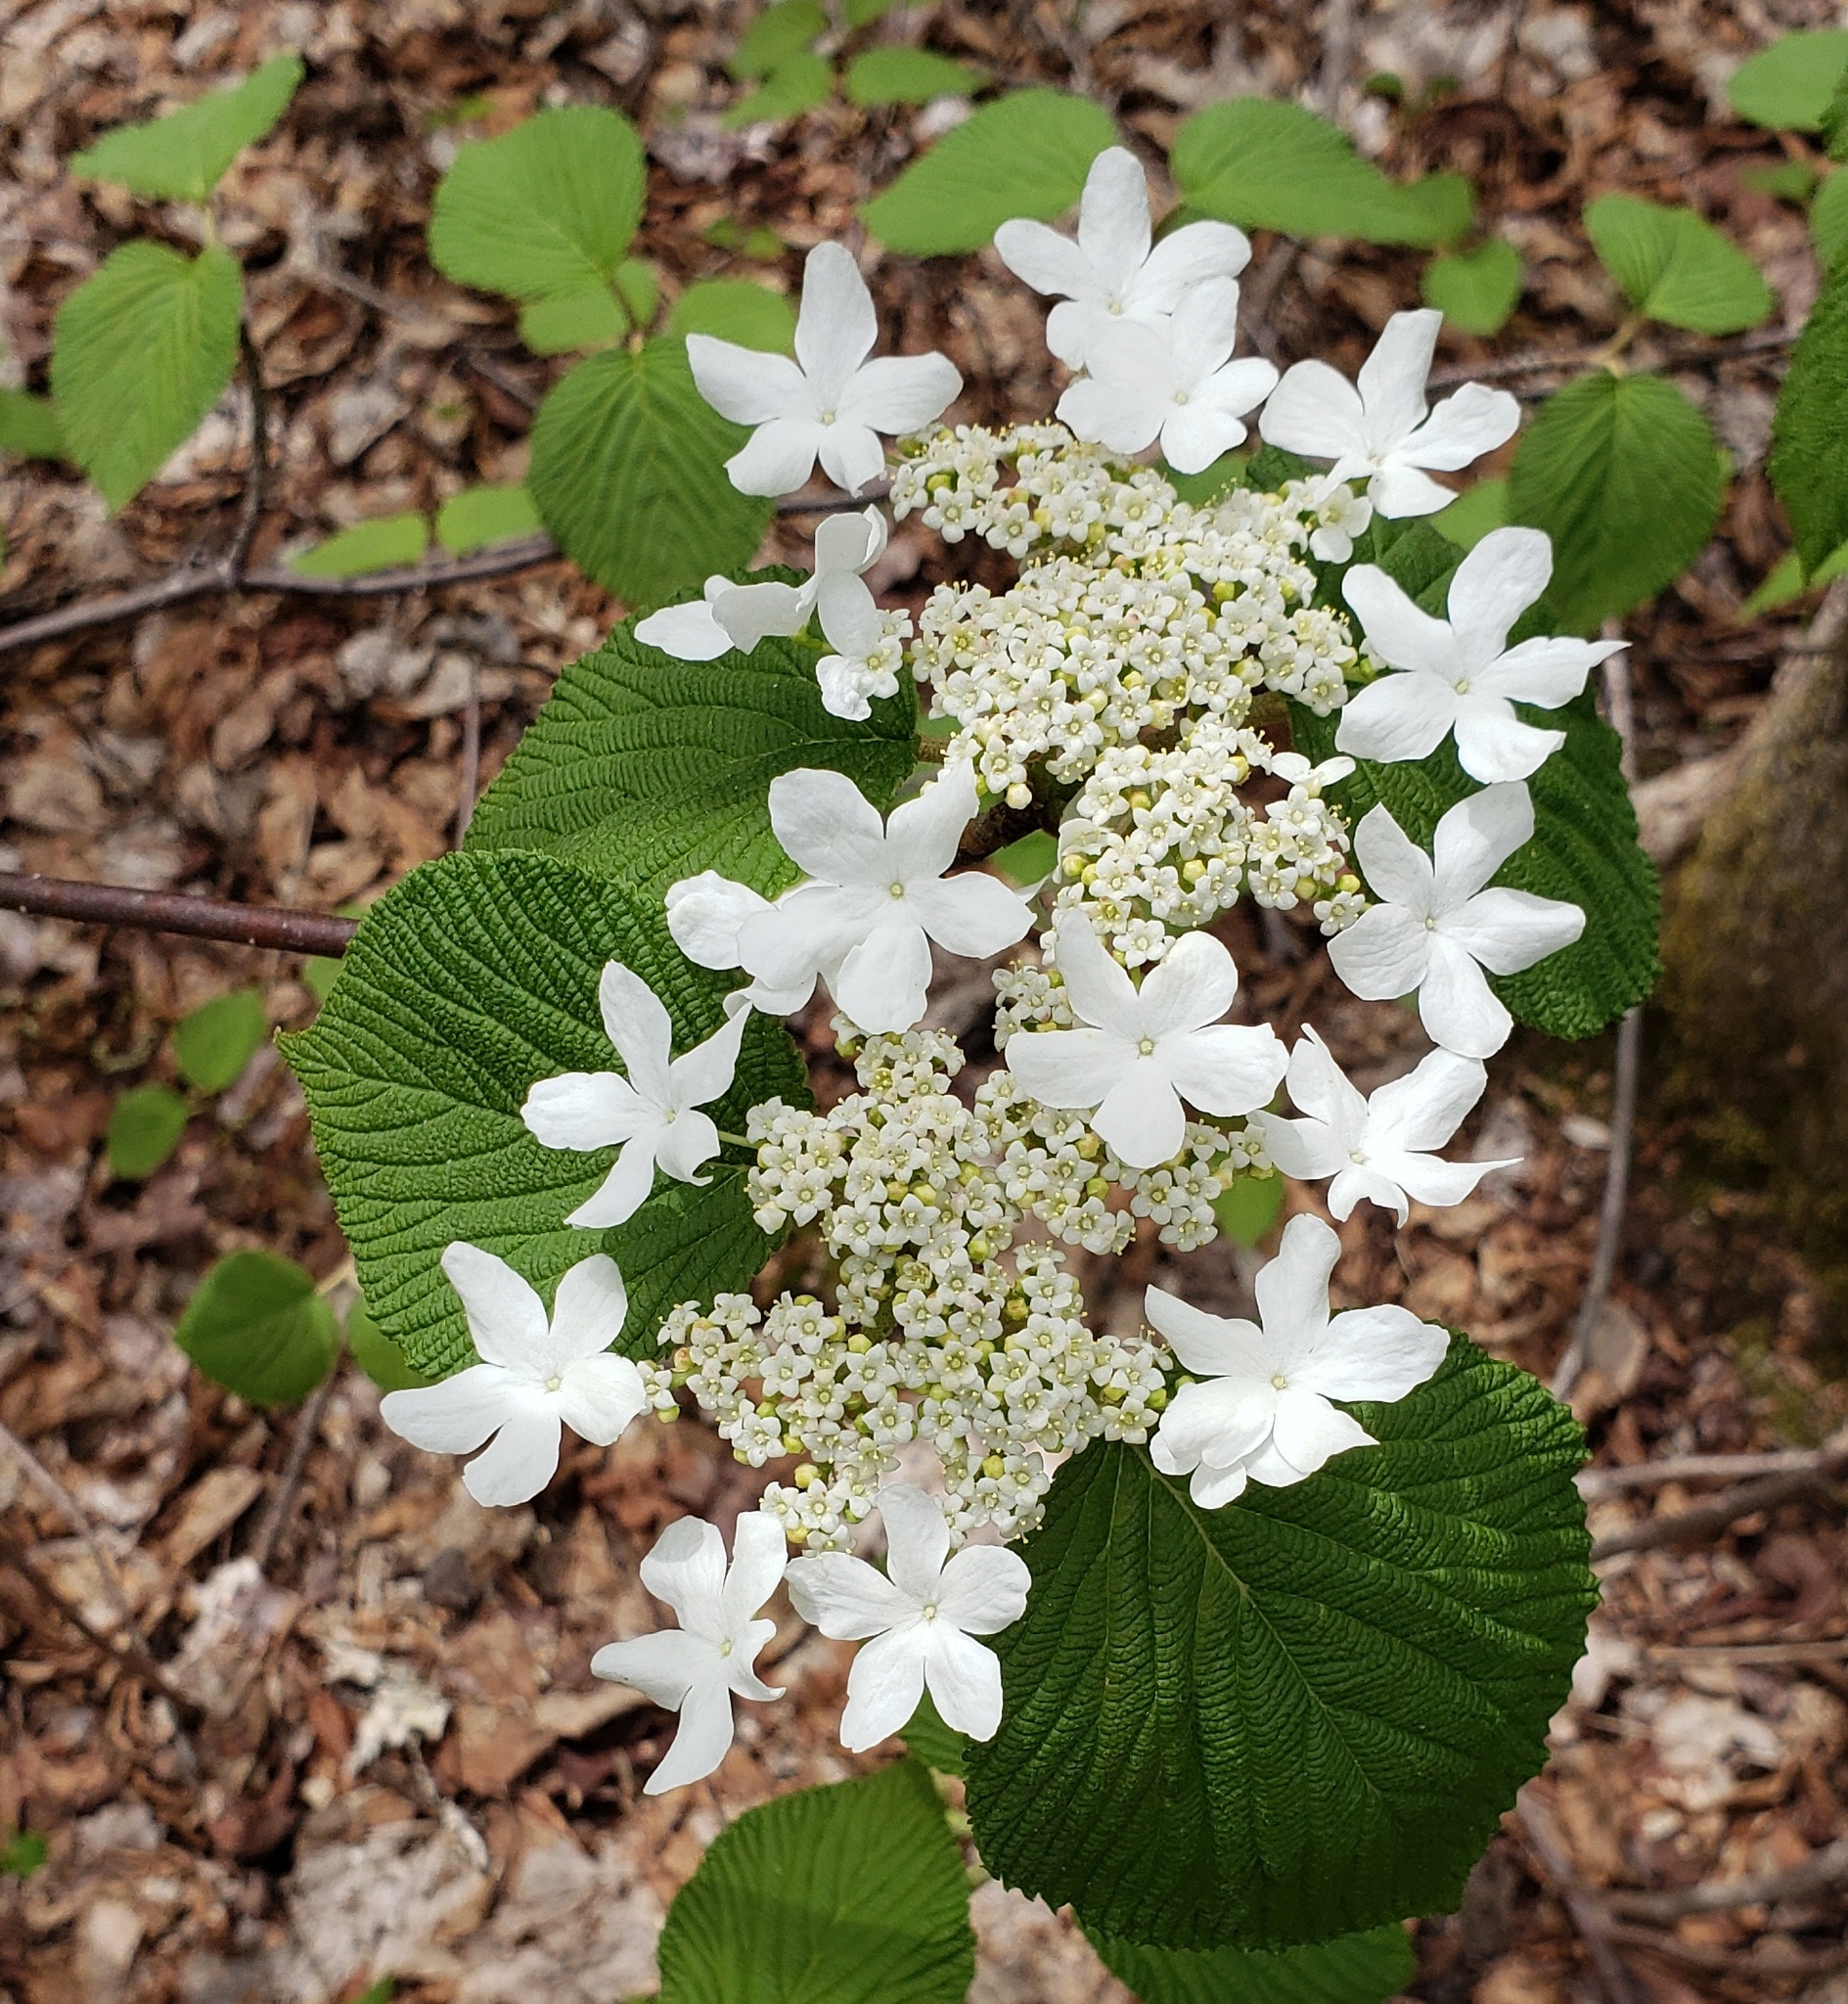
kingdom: Plantae
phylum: Tracheophyta
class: Magnoliopsida
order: Dipsacales
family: Viburnaceae
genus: Viburnum
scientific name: Viburnum lantanoides
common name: Hobblebush
